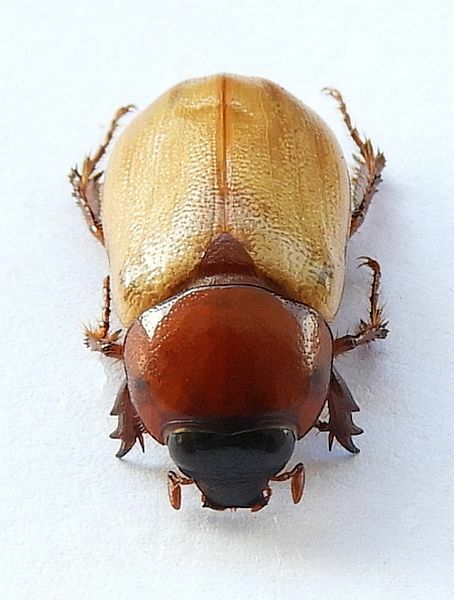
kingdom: Animalia
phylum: Arthropoda
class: Insecta
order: Coleoptera
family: Scarabaeidae
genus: Cyclocephala
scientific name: Cyclocephala melanocephala
